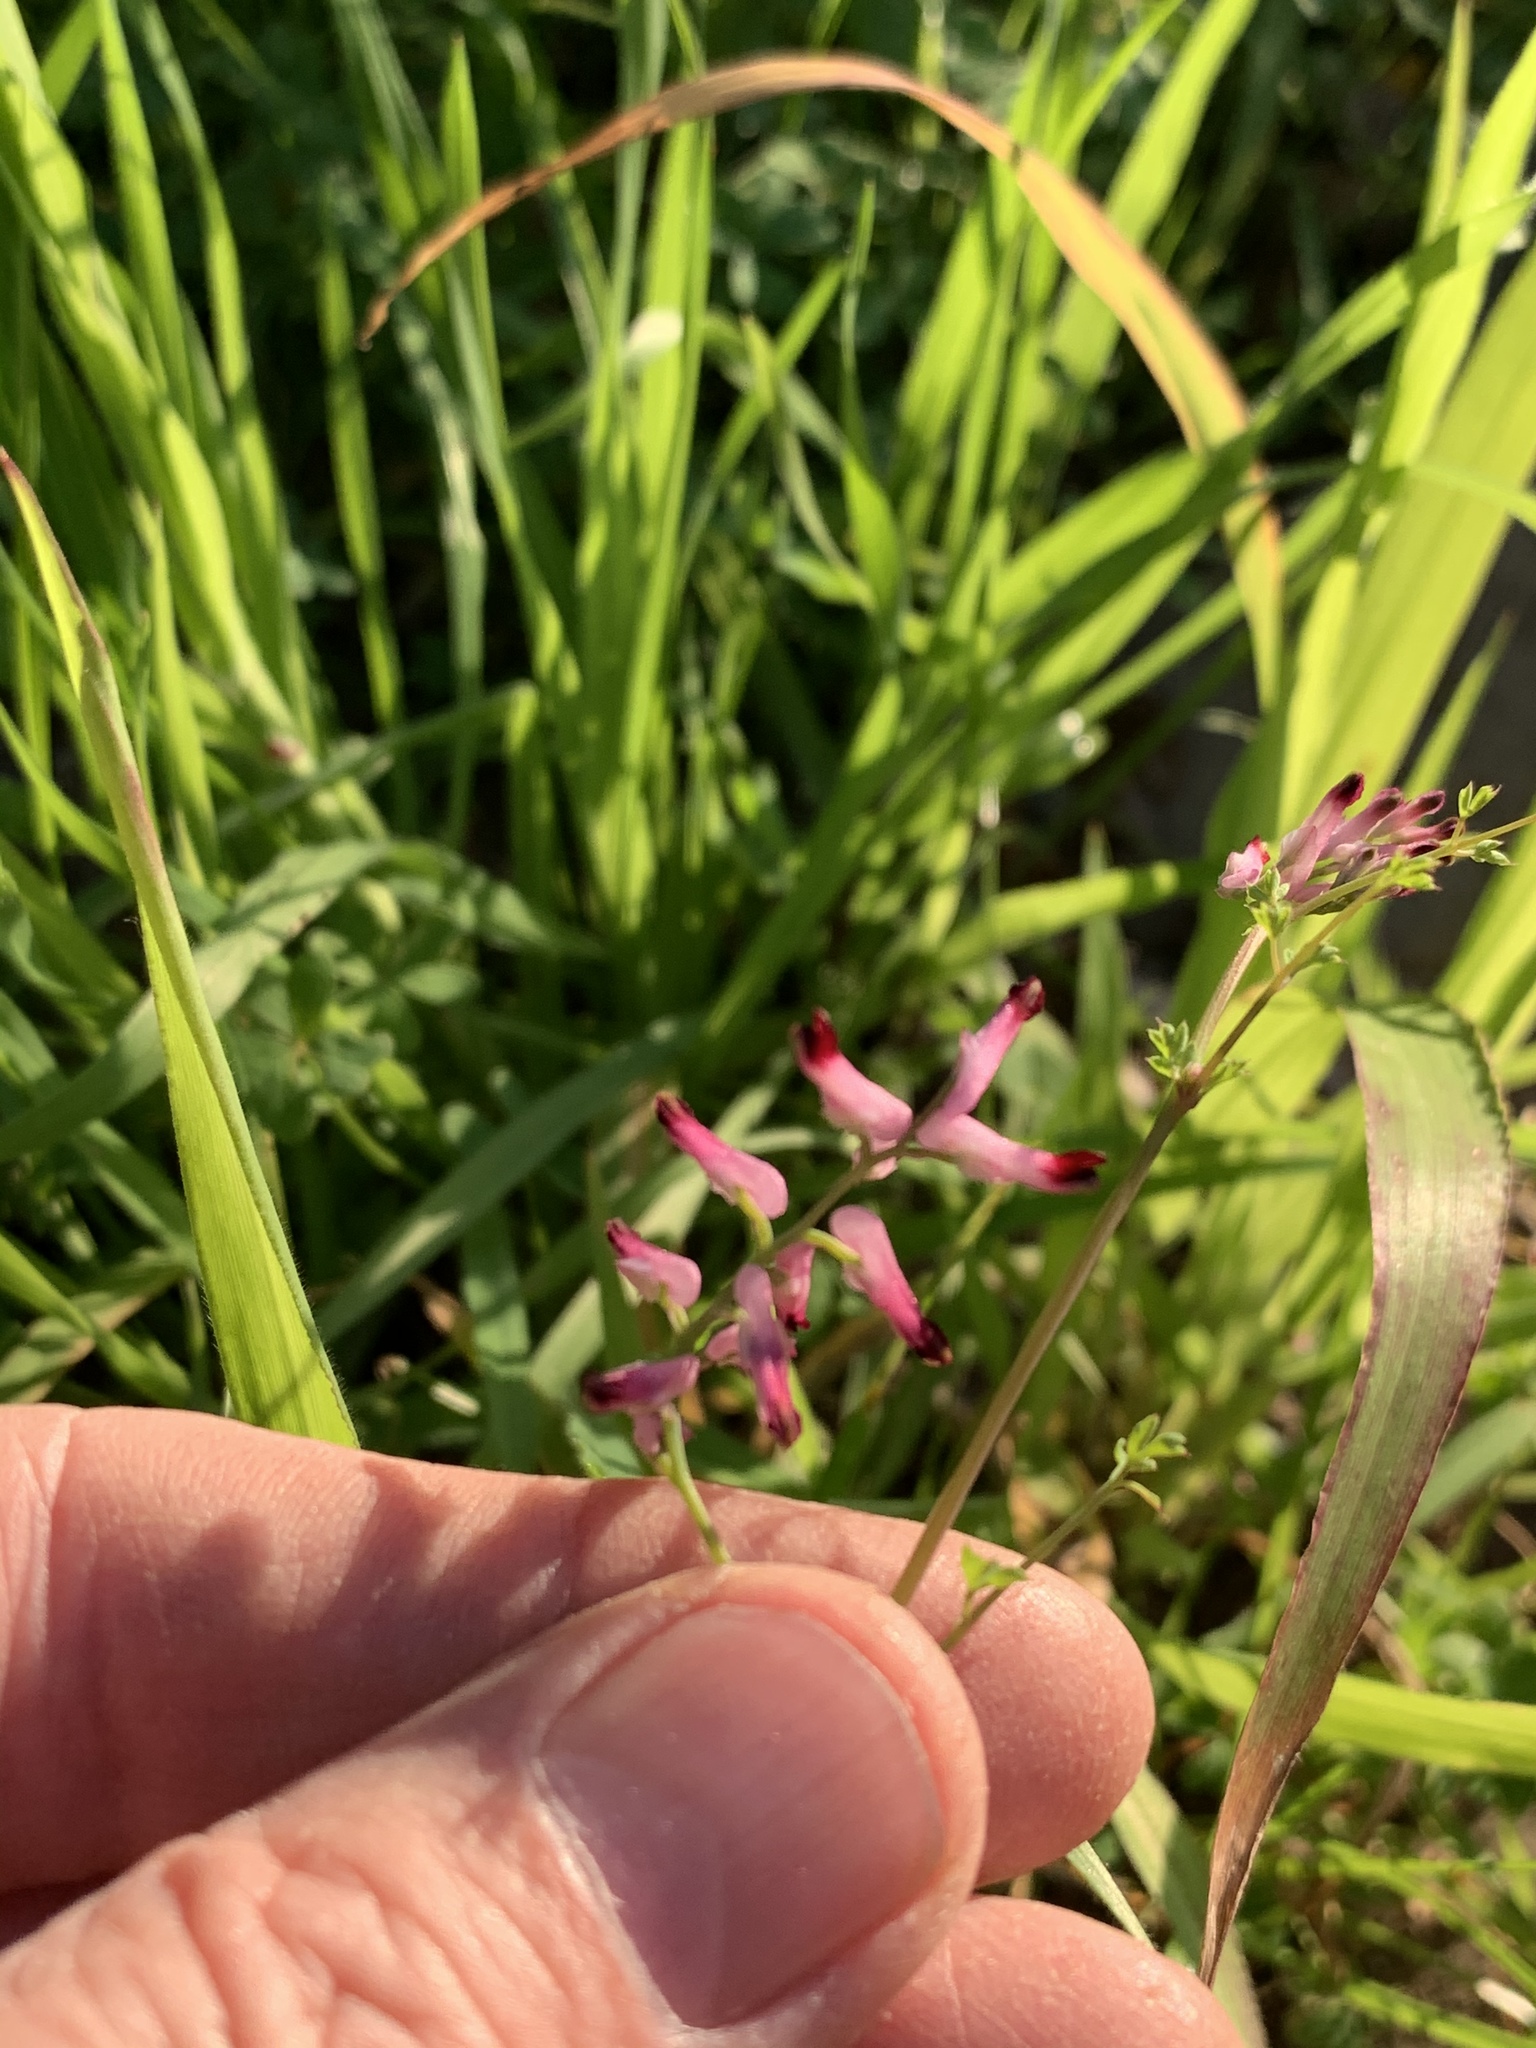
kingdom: Plantae
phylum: Tracheophyta
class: Magnoliopsida
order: Ranunculales
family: Papaveraceae
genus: Fumaria
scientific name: Fumaria muralis
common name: Common ramping-fumitory
